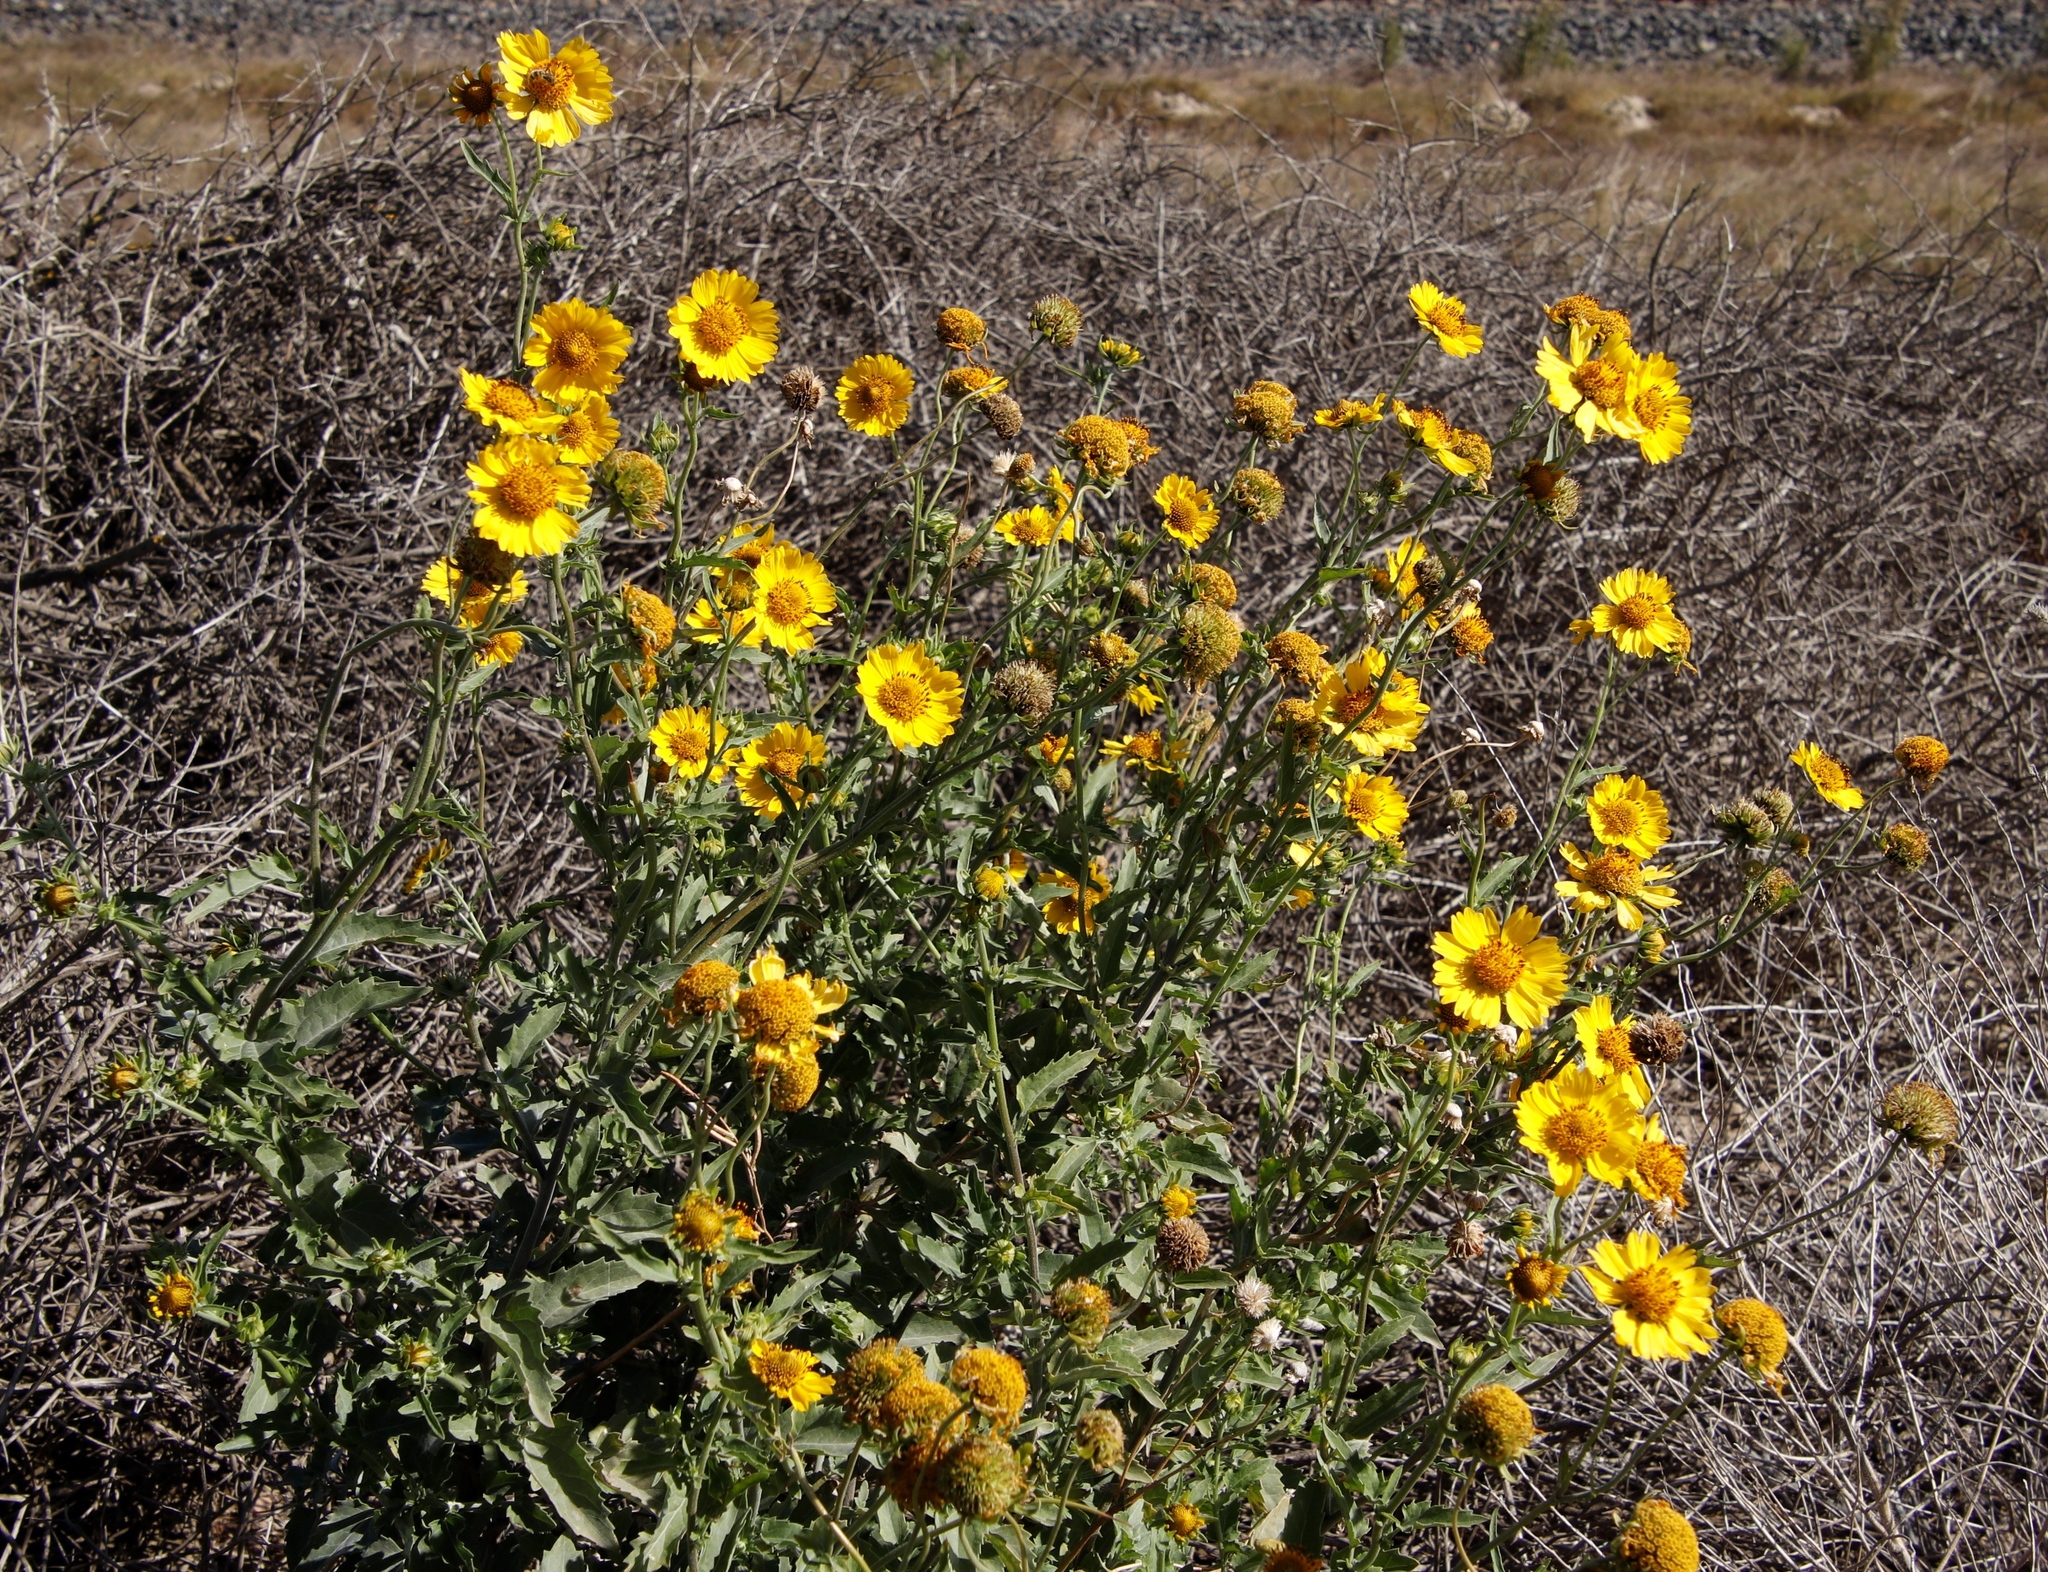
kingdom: Plantae
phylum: Tracheophyta
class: Magnoliopsida
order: Asterales
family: Asteraceae
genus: Verbesina
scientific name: Verbesina encelioides
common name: Golden crownbeard
